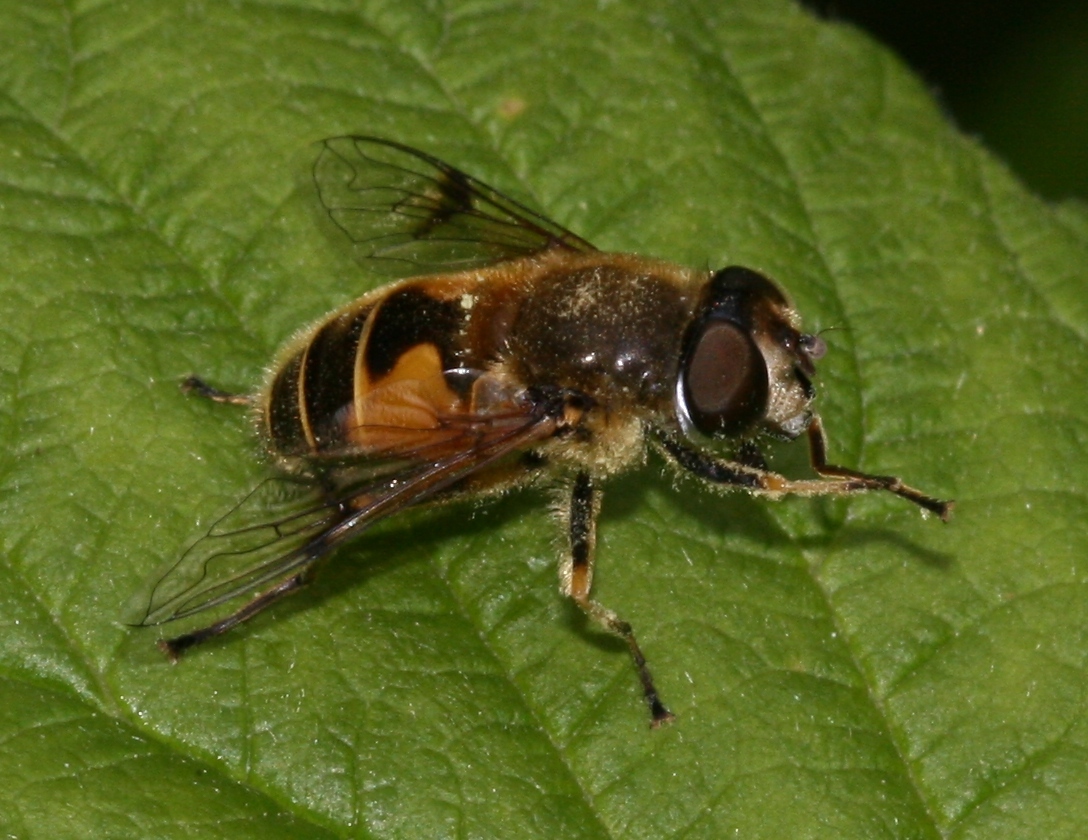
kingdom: Animalia
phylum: Arthropoda
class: Insecta
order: Diptera
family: Syrphidae
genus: Cheilosia
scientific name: Cheilosia morio
